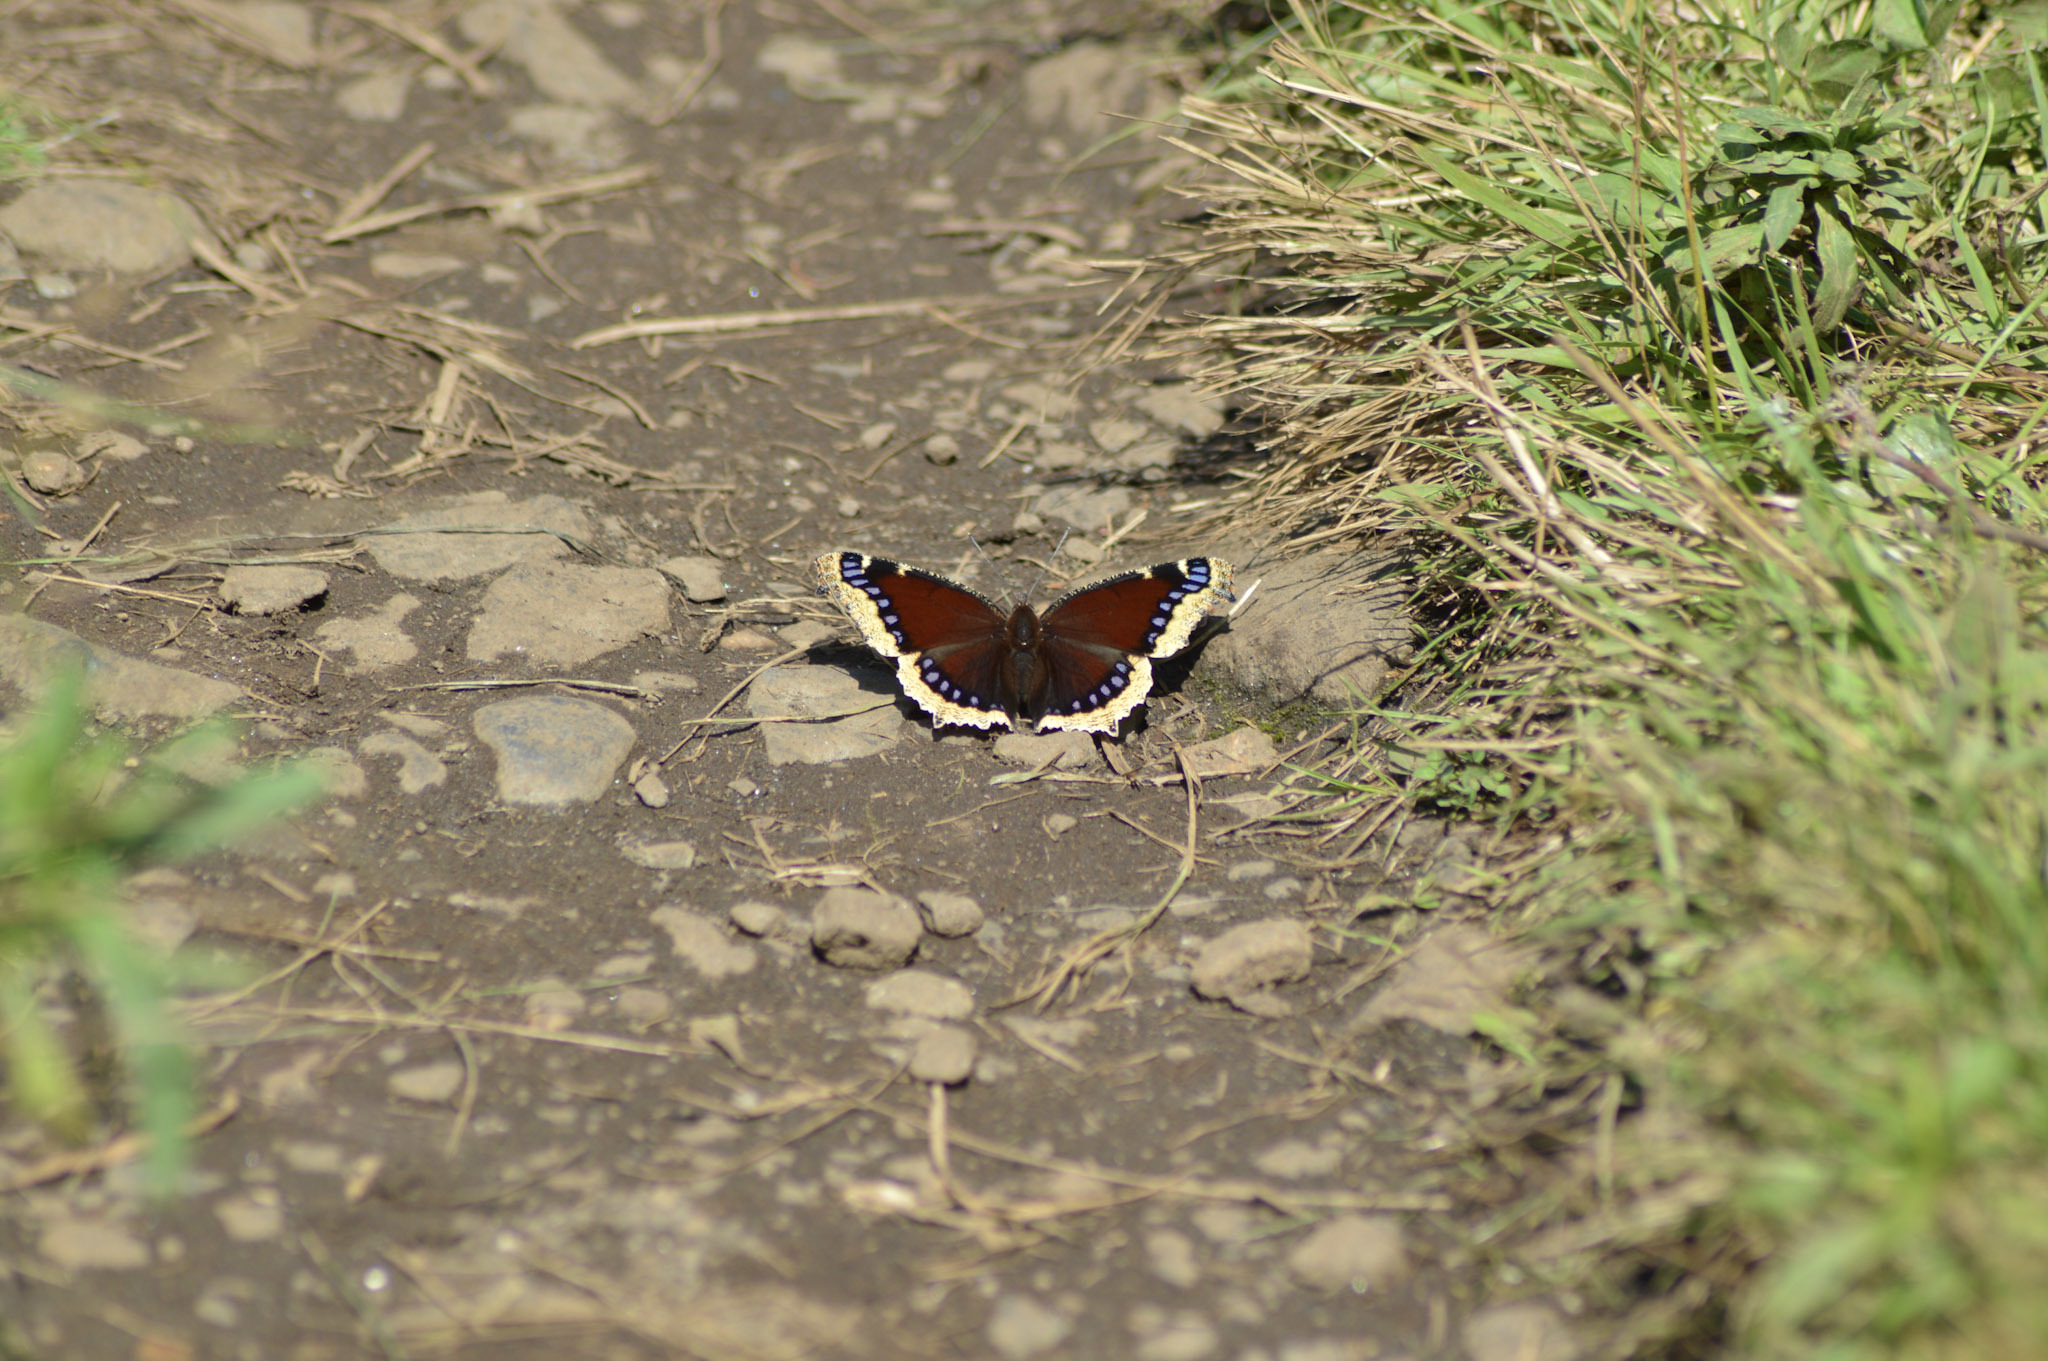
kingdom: Animalia
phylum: Arthropoda
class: Insecta
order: Lepidoptera
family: Nymphalidae
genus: Nymphalis
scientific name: Nymphalis antiopa
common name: Camberwell beauty
